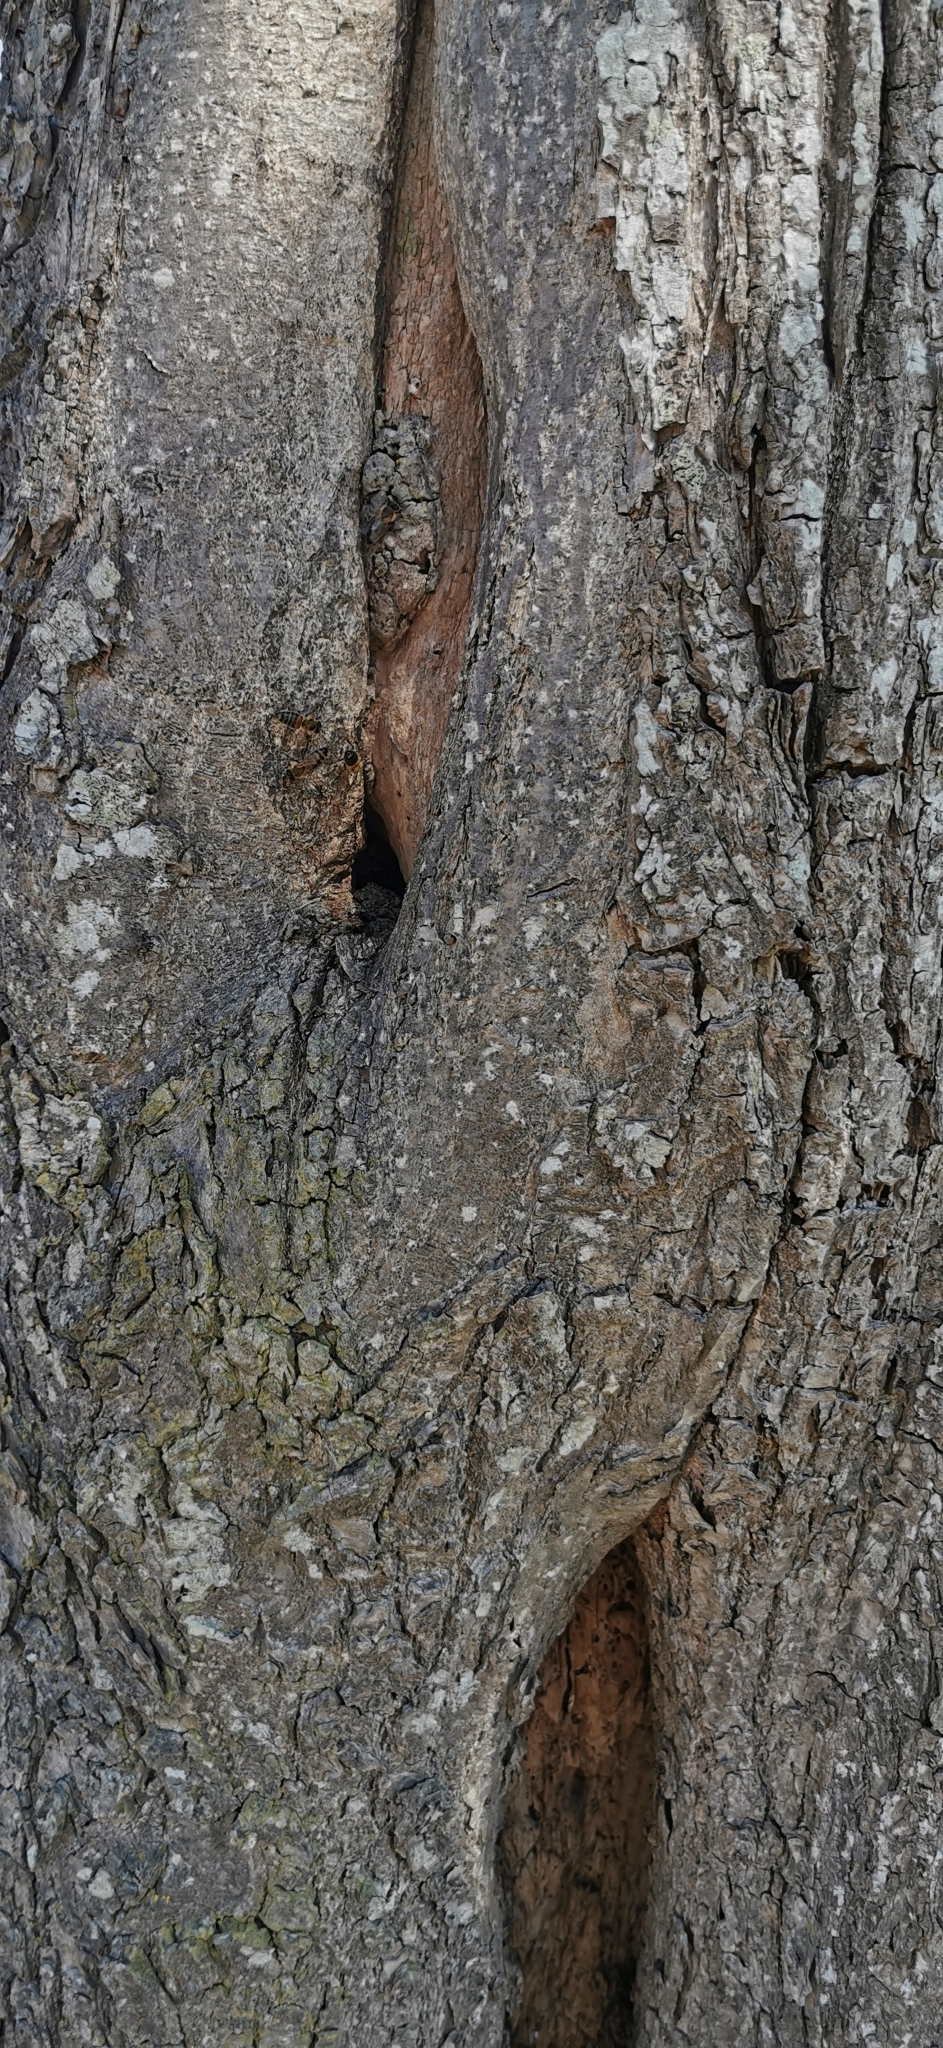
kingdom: Animalia
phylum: Arthropoda
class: Insecta
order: Hymenoptera
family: Apidae
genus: Apis
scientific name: Apis mellifera
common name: Honey bee
